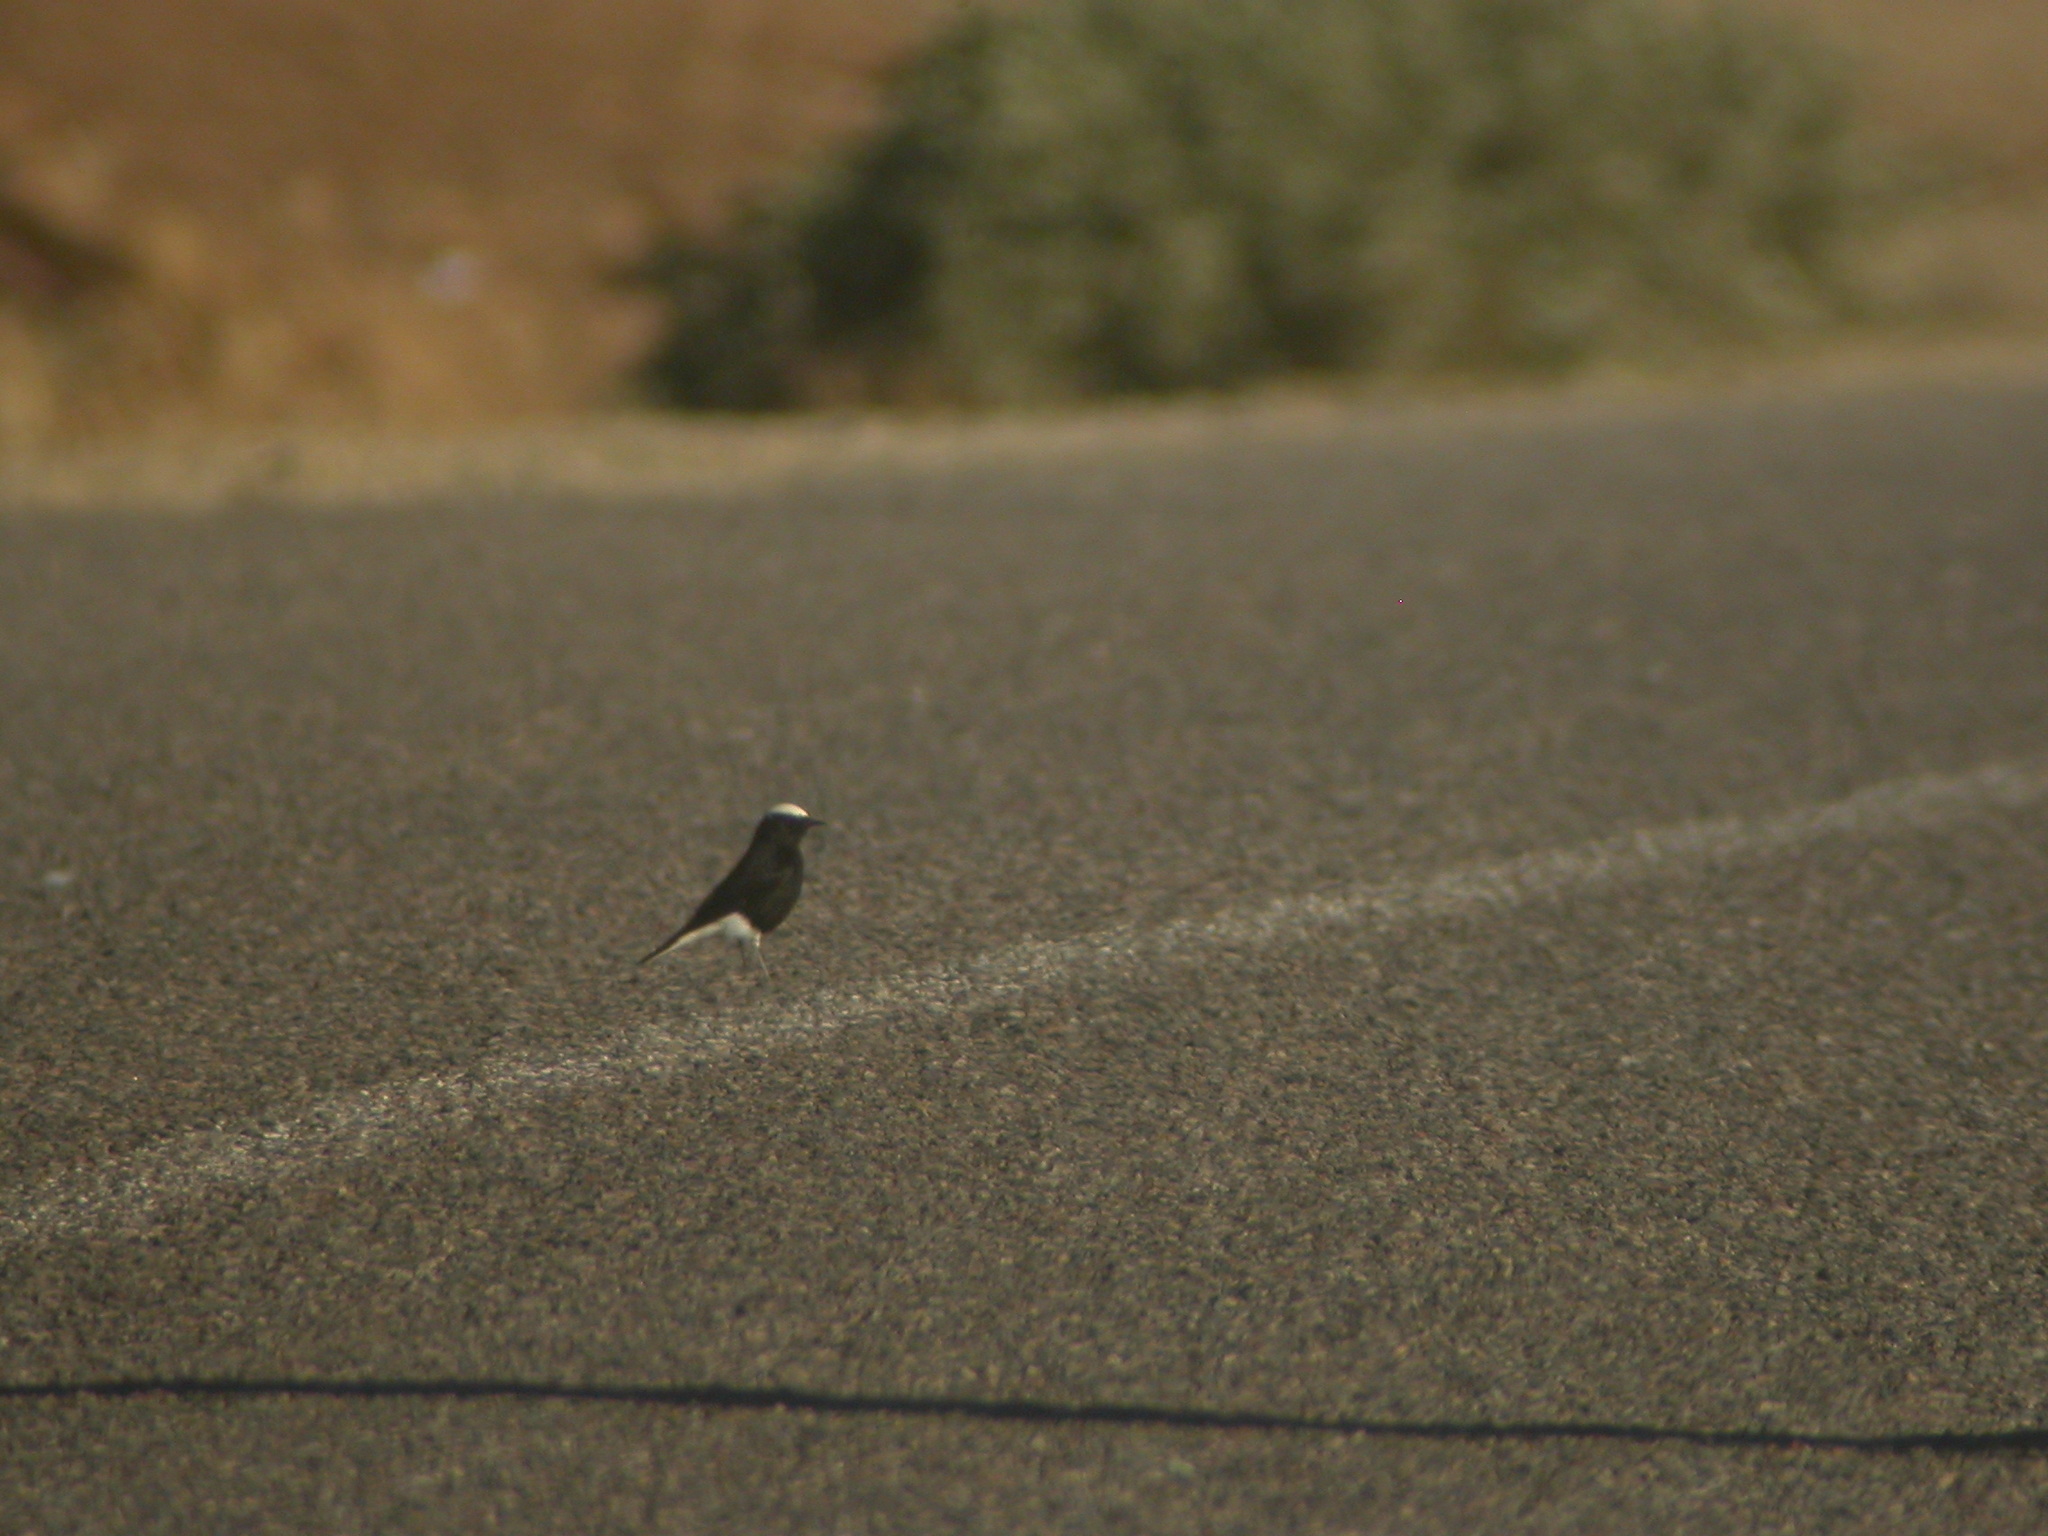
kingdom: Animalia
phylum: Chordata
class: Aves
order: Passeriformes
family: Muscicapidae
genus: Oenanthe
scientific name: Oenanthe leucopyga
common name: White-crowned wheatear
